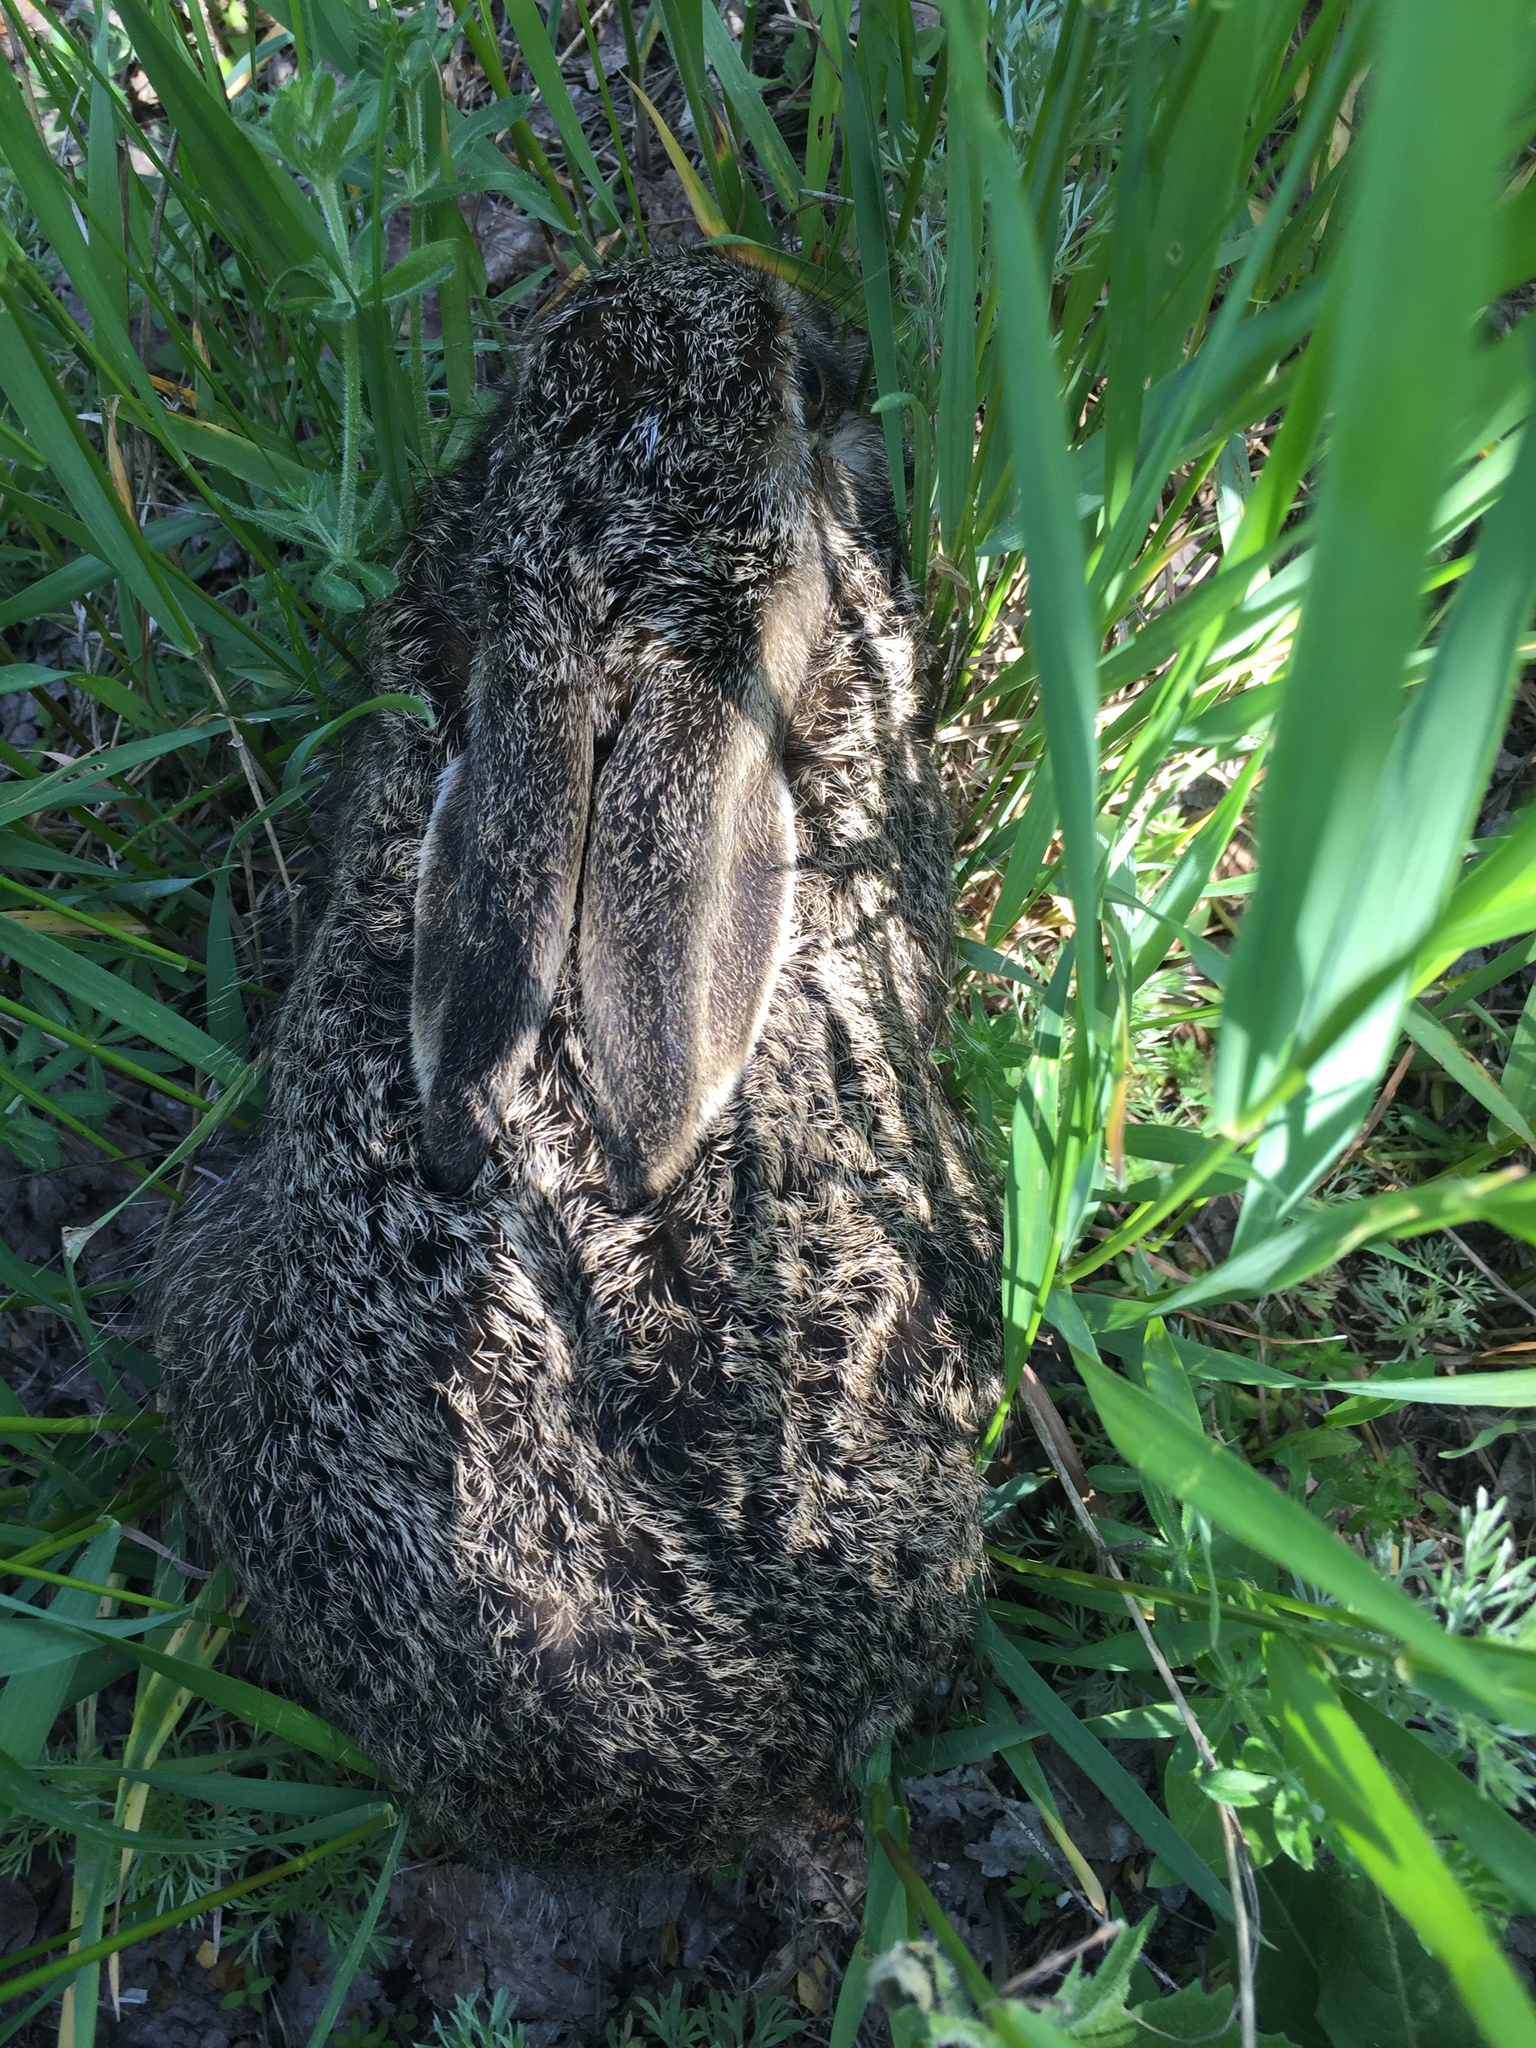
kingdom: Animalia
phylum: Chordata
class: Mammalia
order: Lagomorpha
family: Leporidae
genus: Lepus
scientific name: Lepus europaeus
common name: European hare
